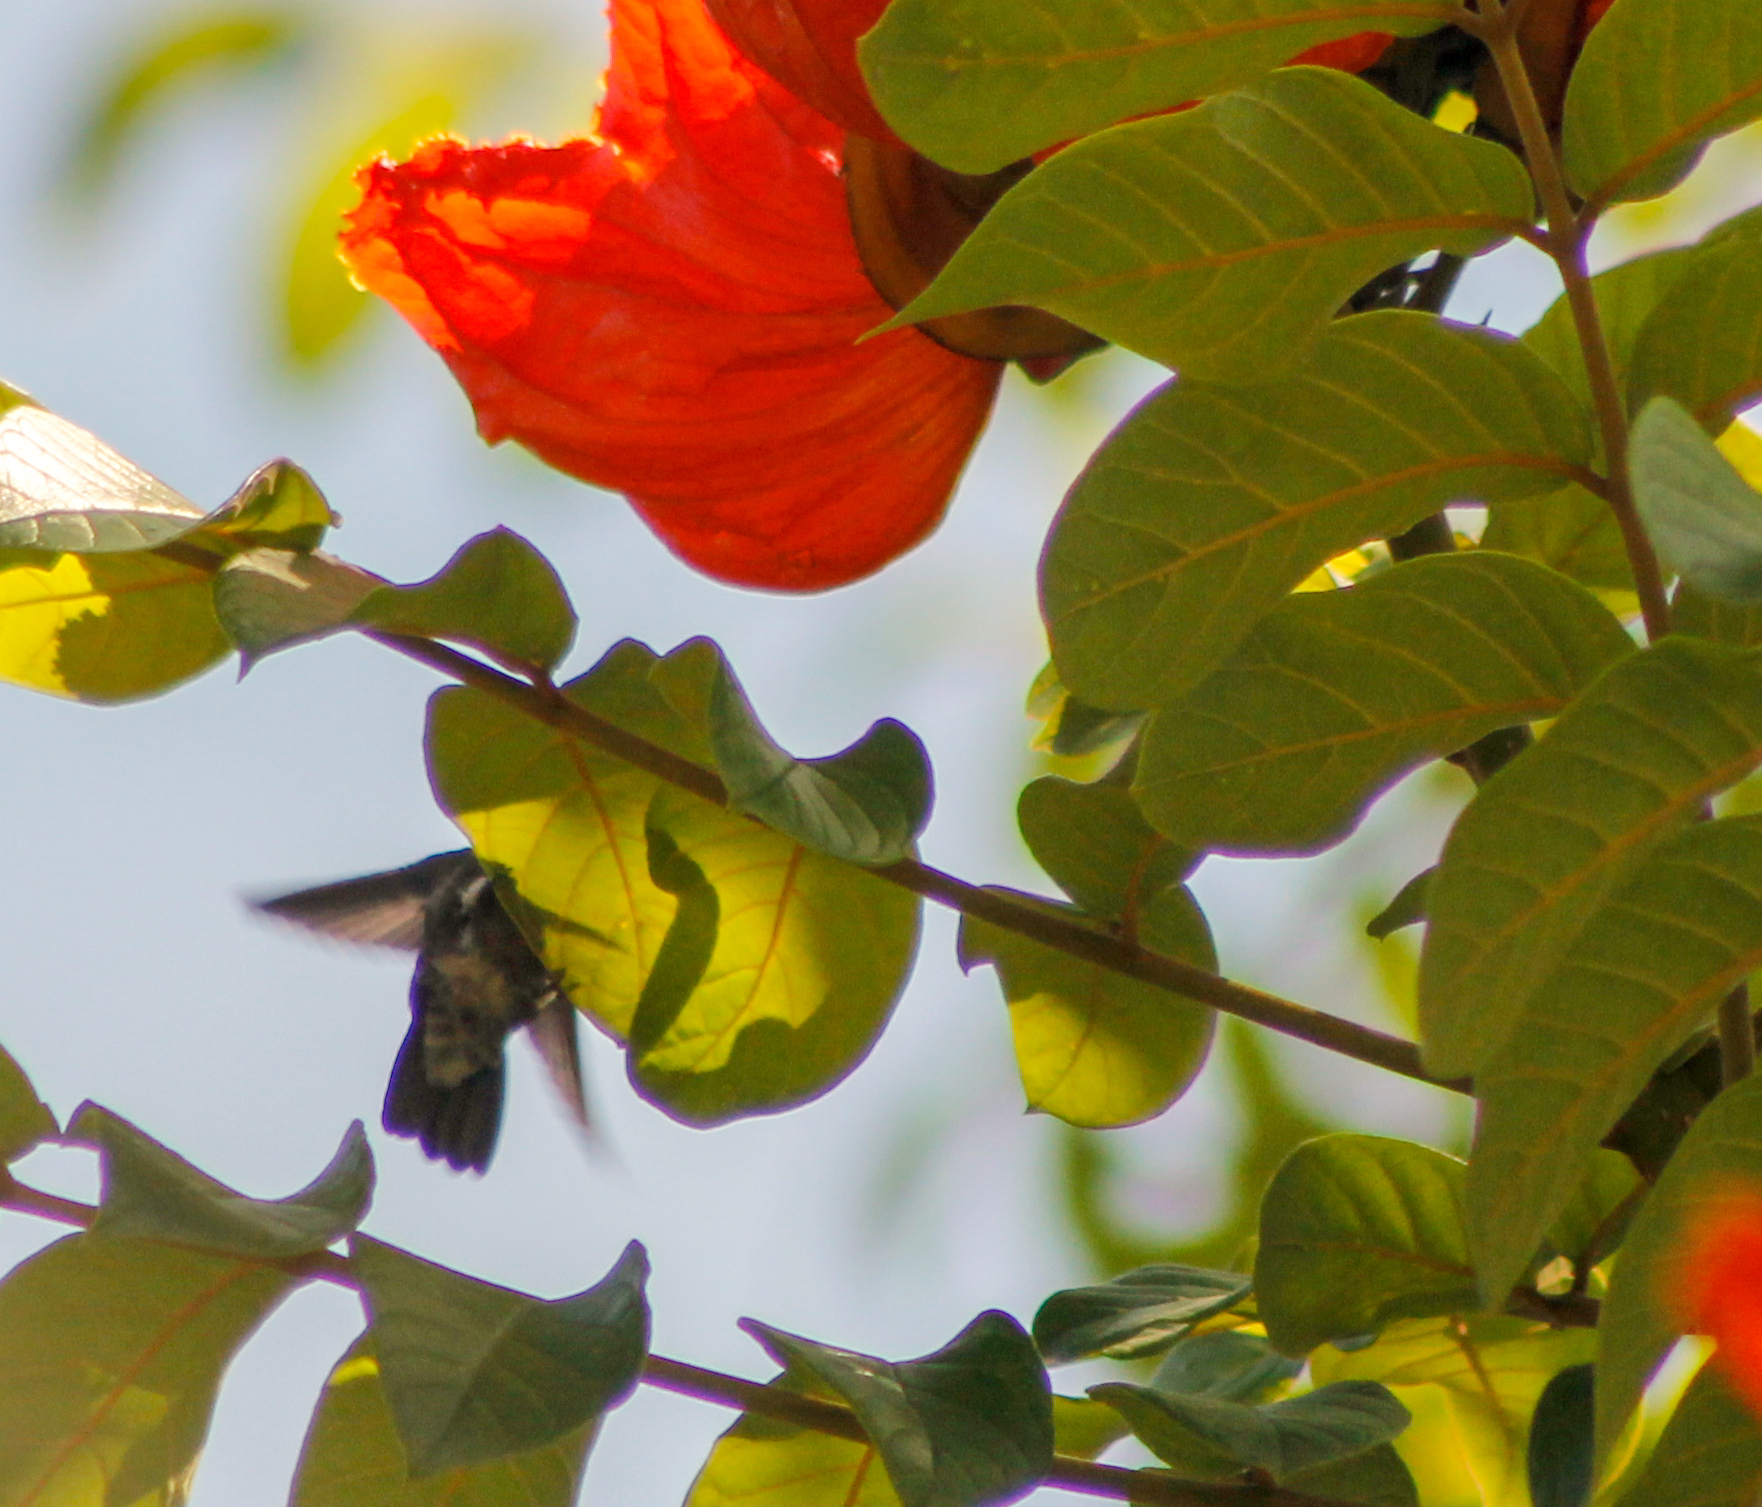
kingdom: Animalia
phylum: Chordata
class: Aves
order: Apodiformes
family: Trochilidae
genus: Saucerottia
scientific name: Saucerottia saucerottei
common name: Steely-vented hummingbird
